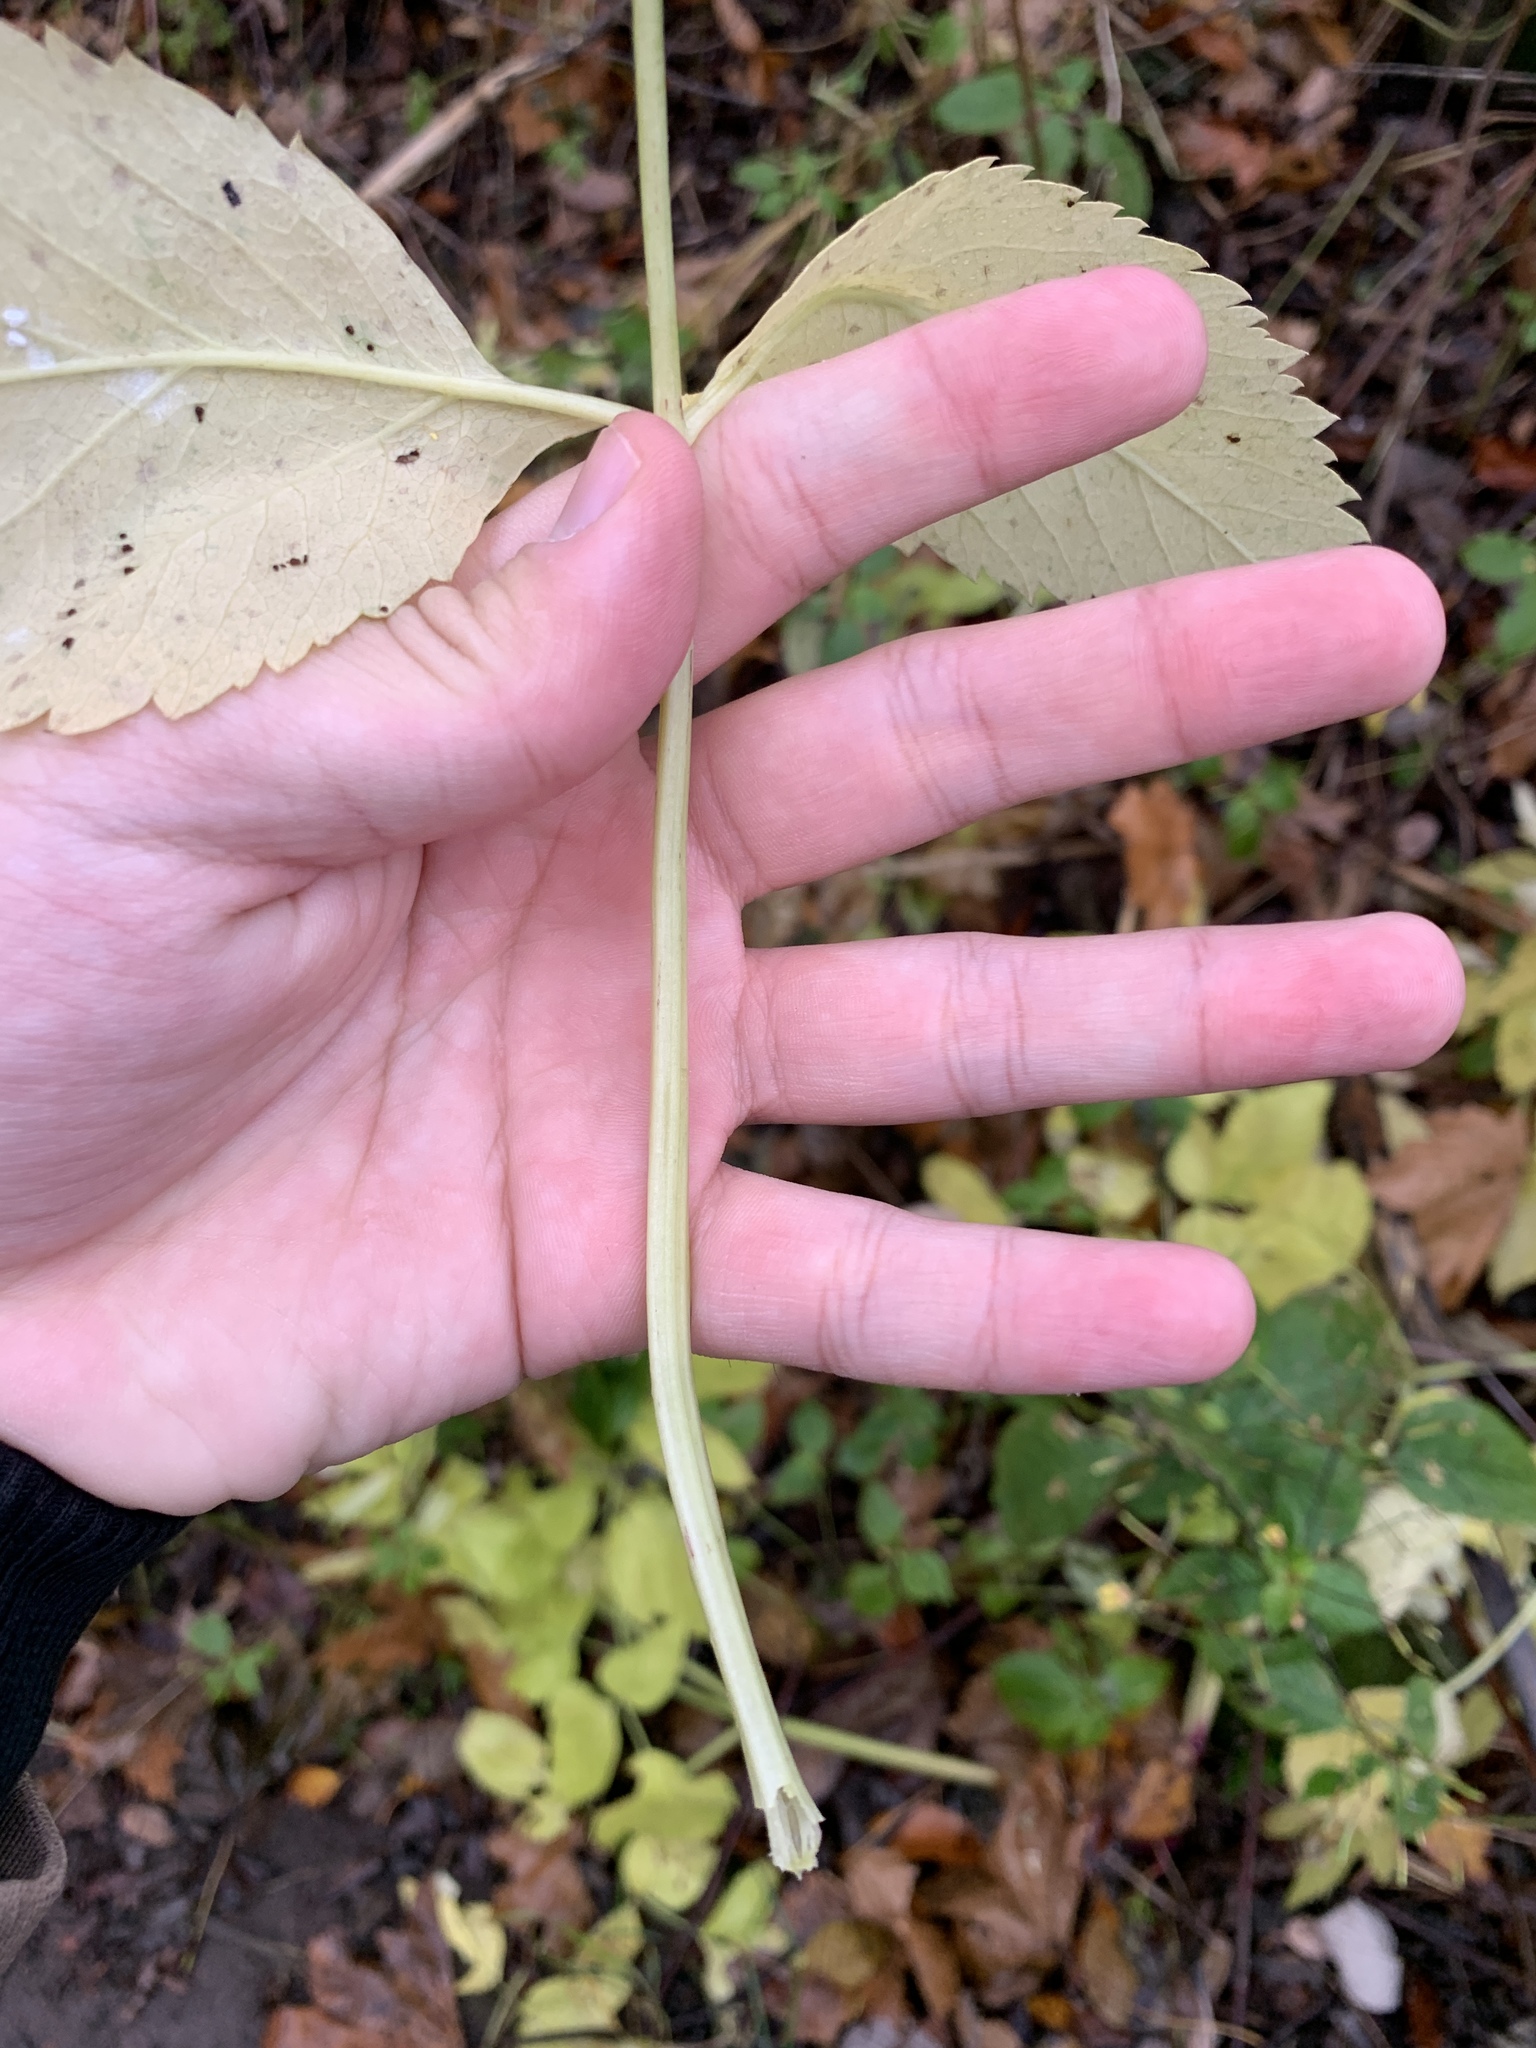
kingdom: Plantae
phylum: Tracheophyta
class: Magnoliopsida
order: Apiales
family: Apiaceae
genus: Angelica
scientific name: Angelica sylvestris
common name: Wild angelica
